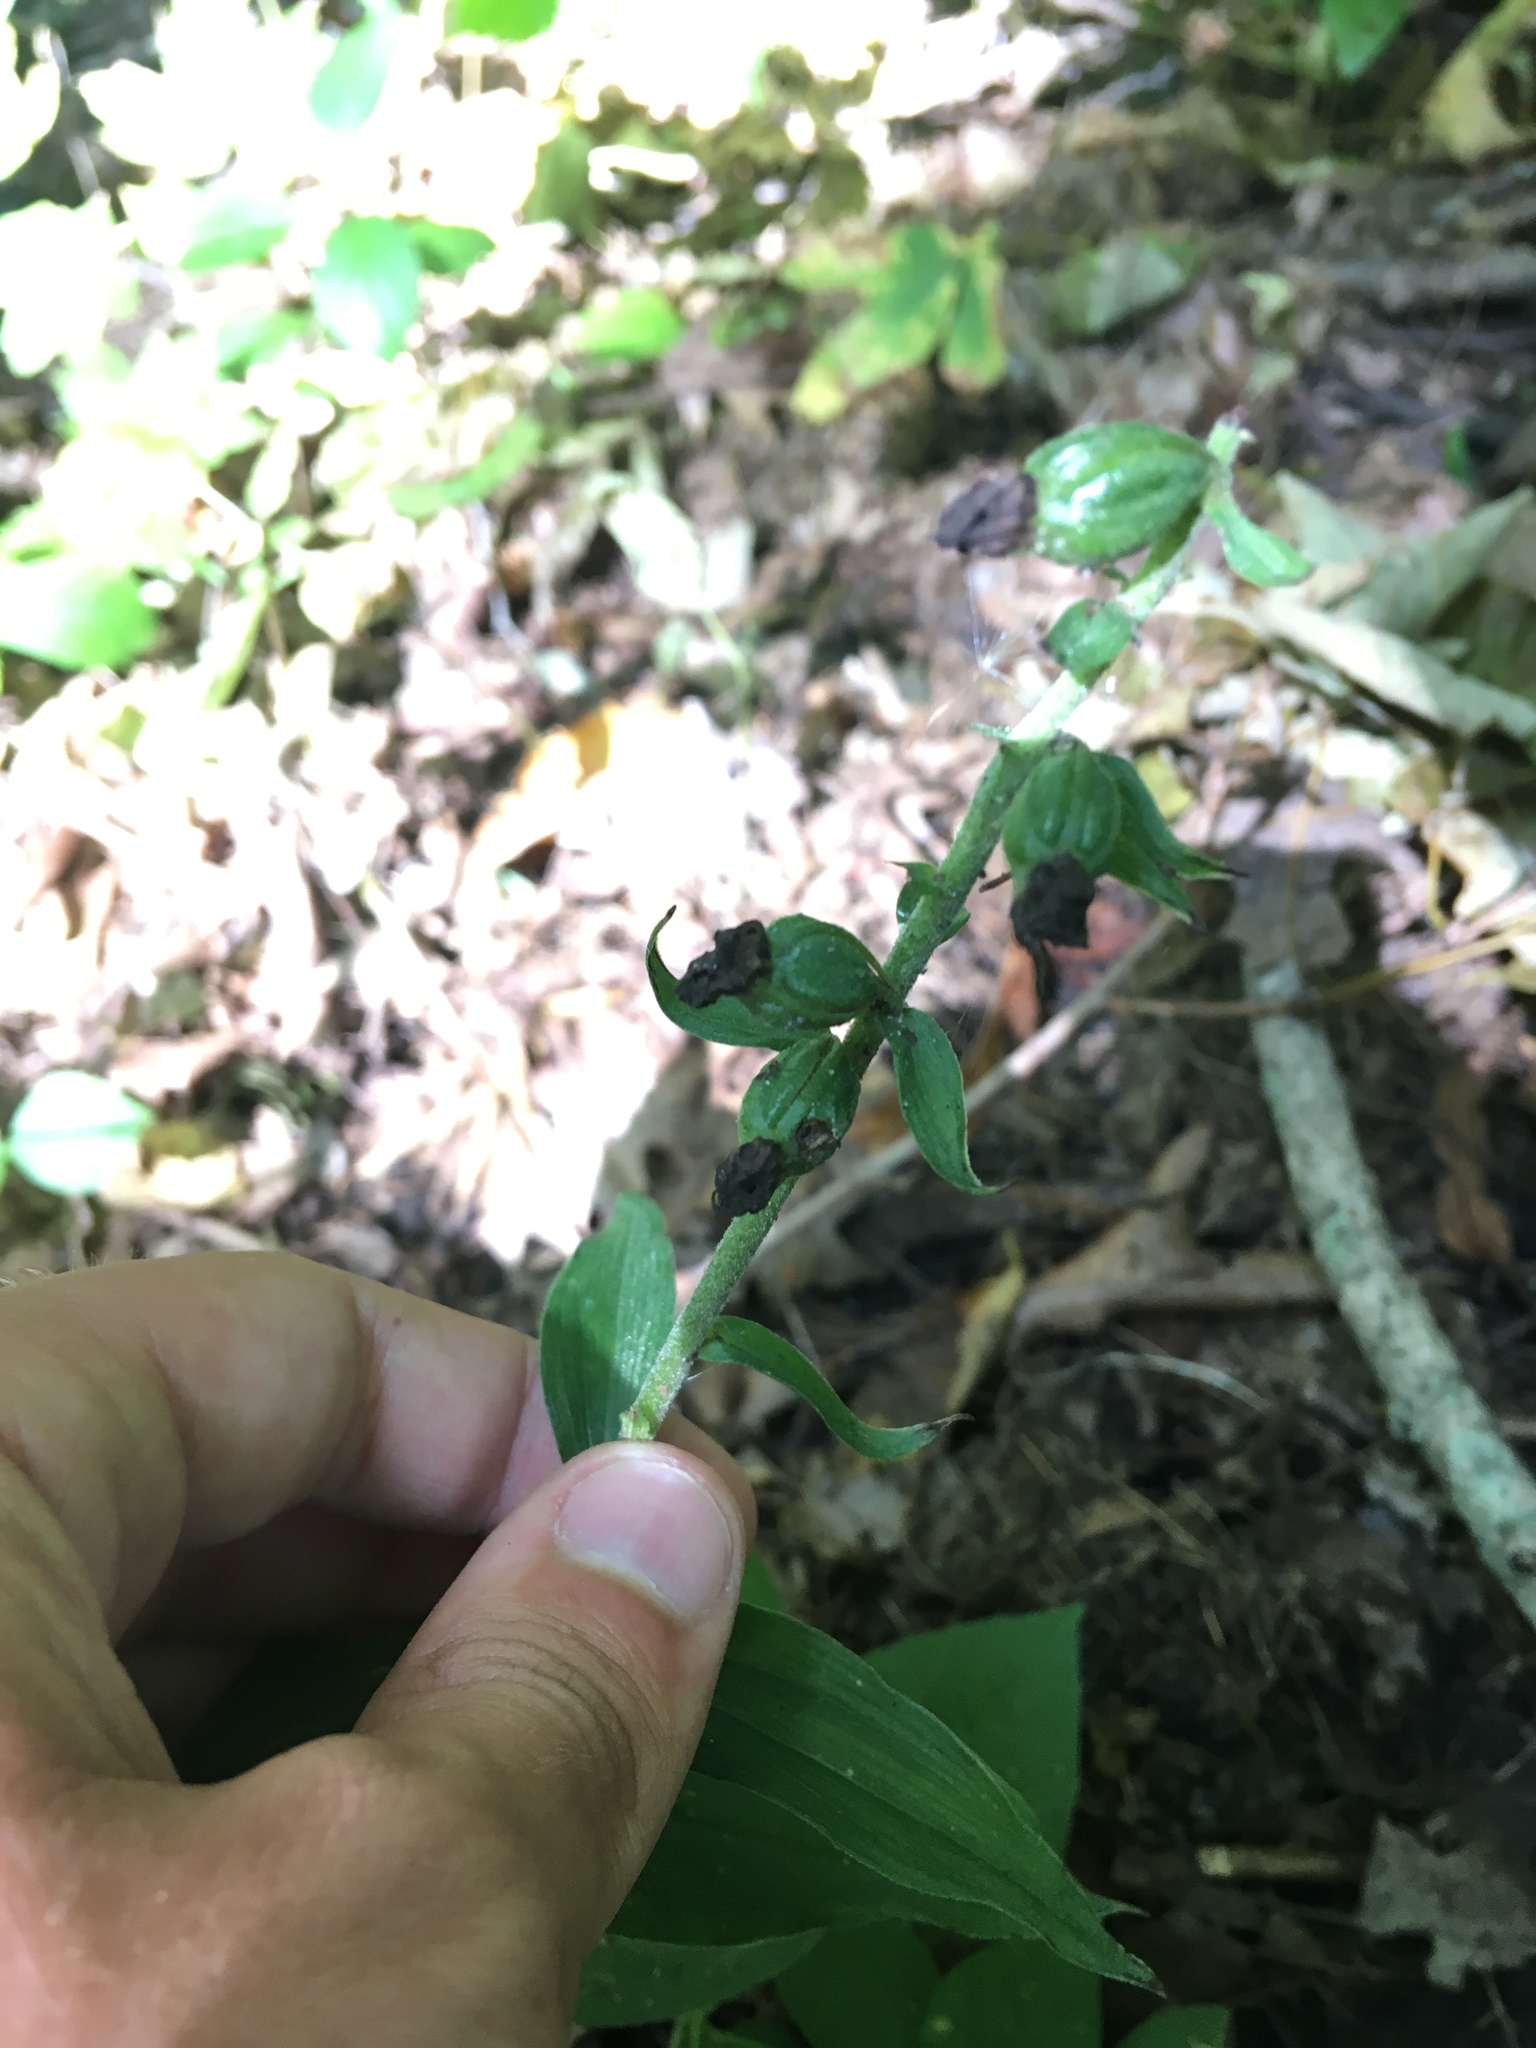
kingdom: Plantae
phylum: Tracheophyta
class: Liliopsida
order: Asparagales
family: Orchidaceae
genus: Epipactis
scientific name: Epipactis helleborine
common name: Broad-leaved helleborine
